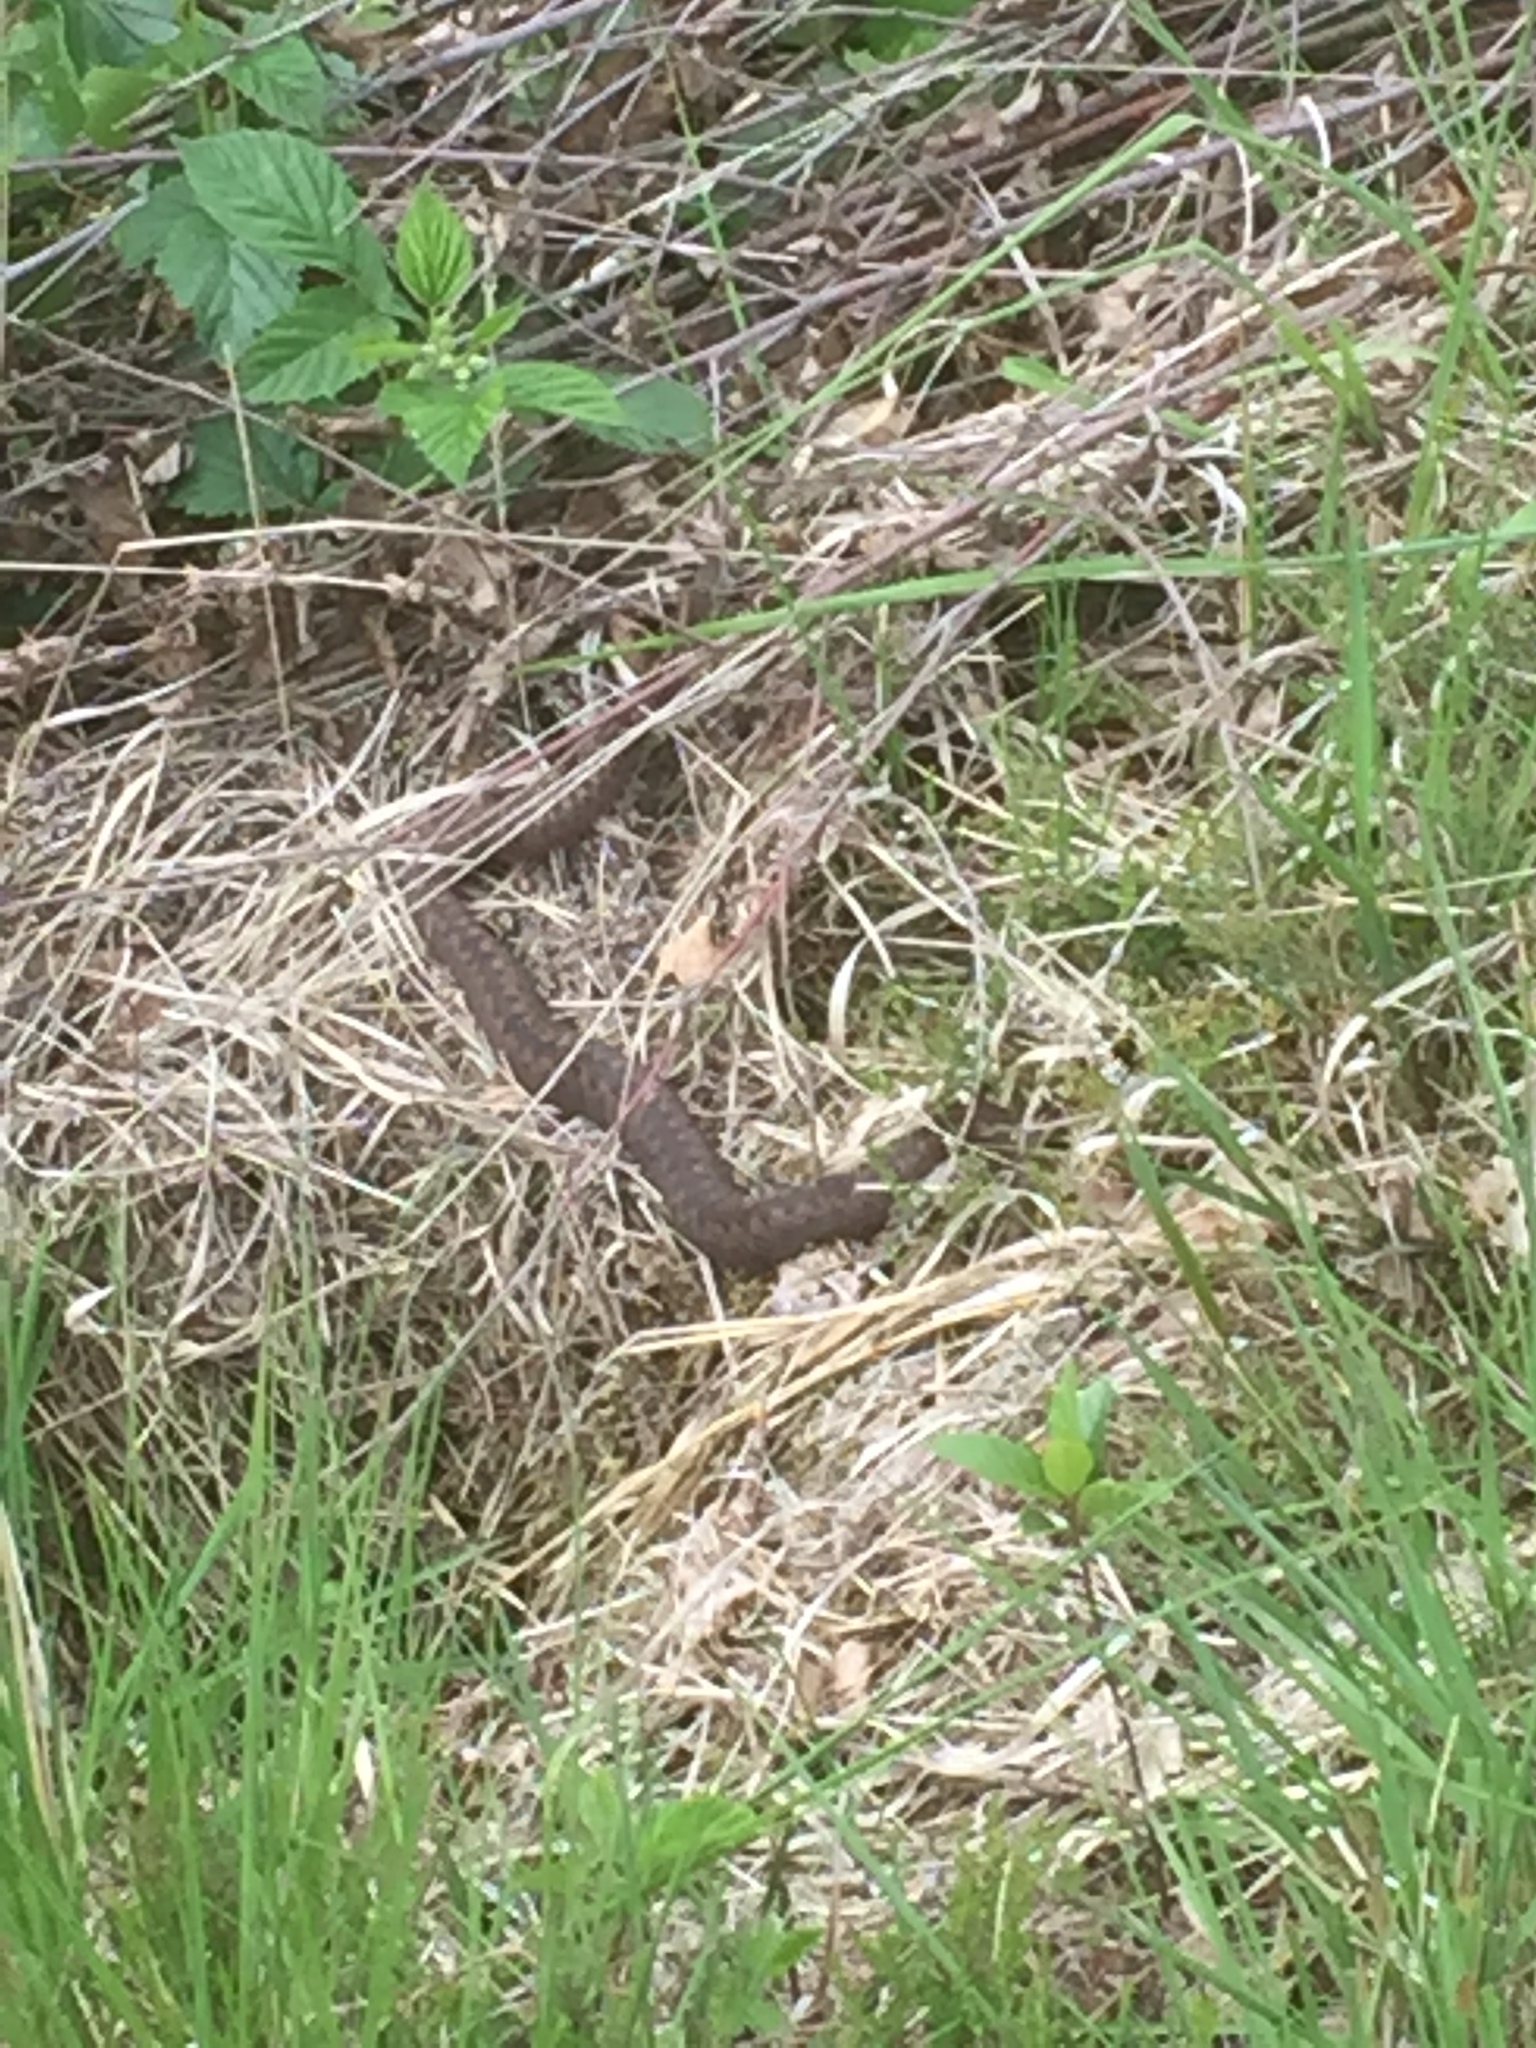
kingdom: Animalia
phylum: Chordata
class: Squamata
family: Viperidae
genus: Vipera
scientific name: Vipera berus
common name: Adder
